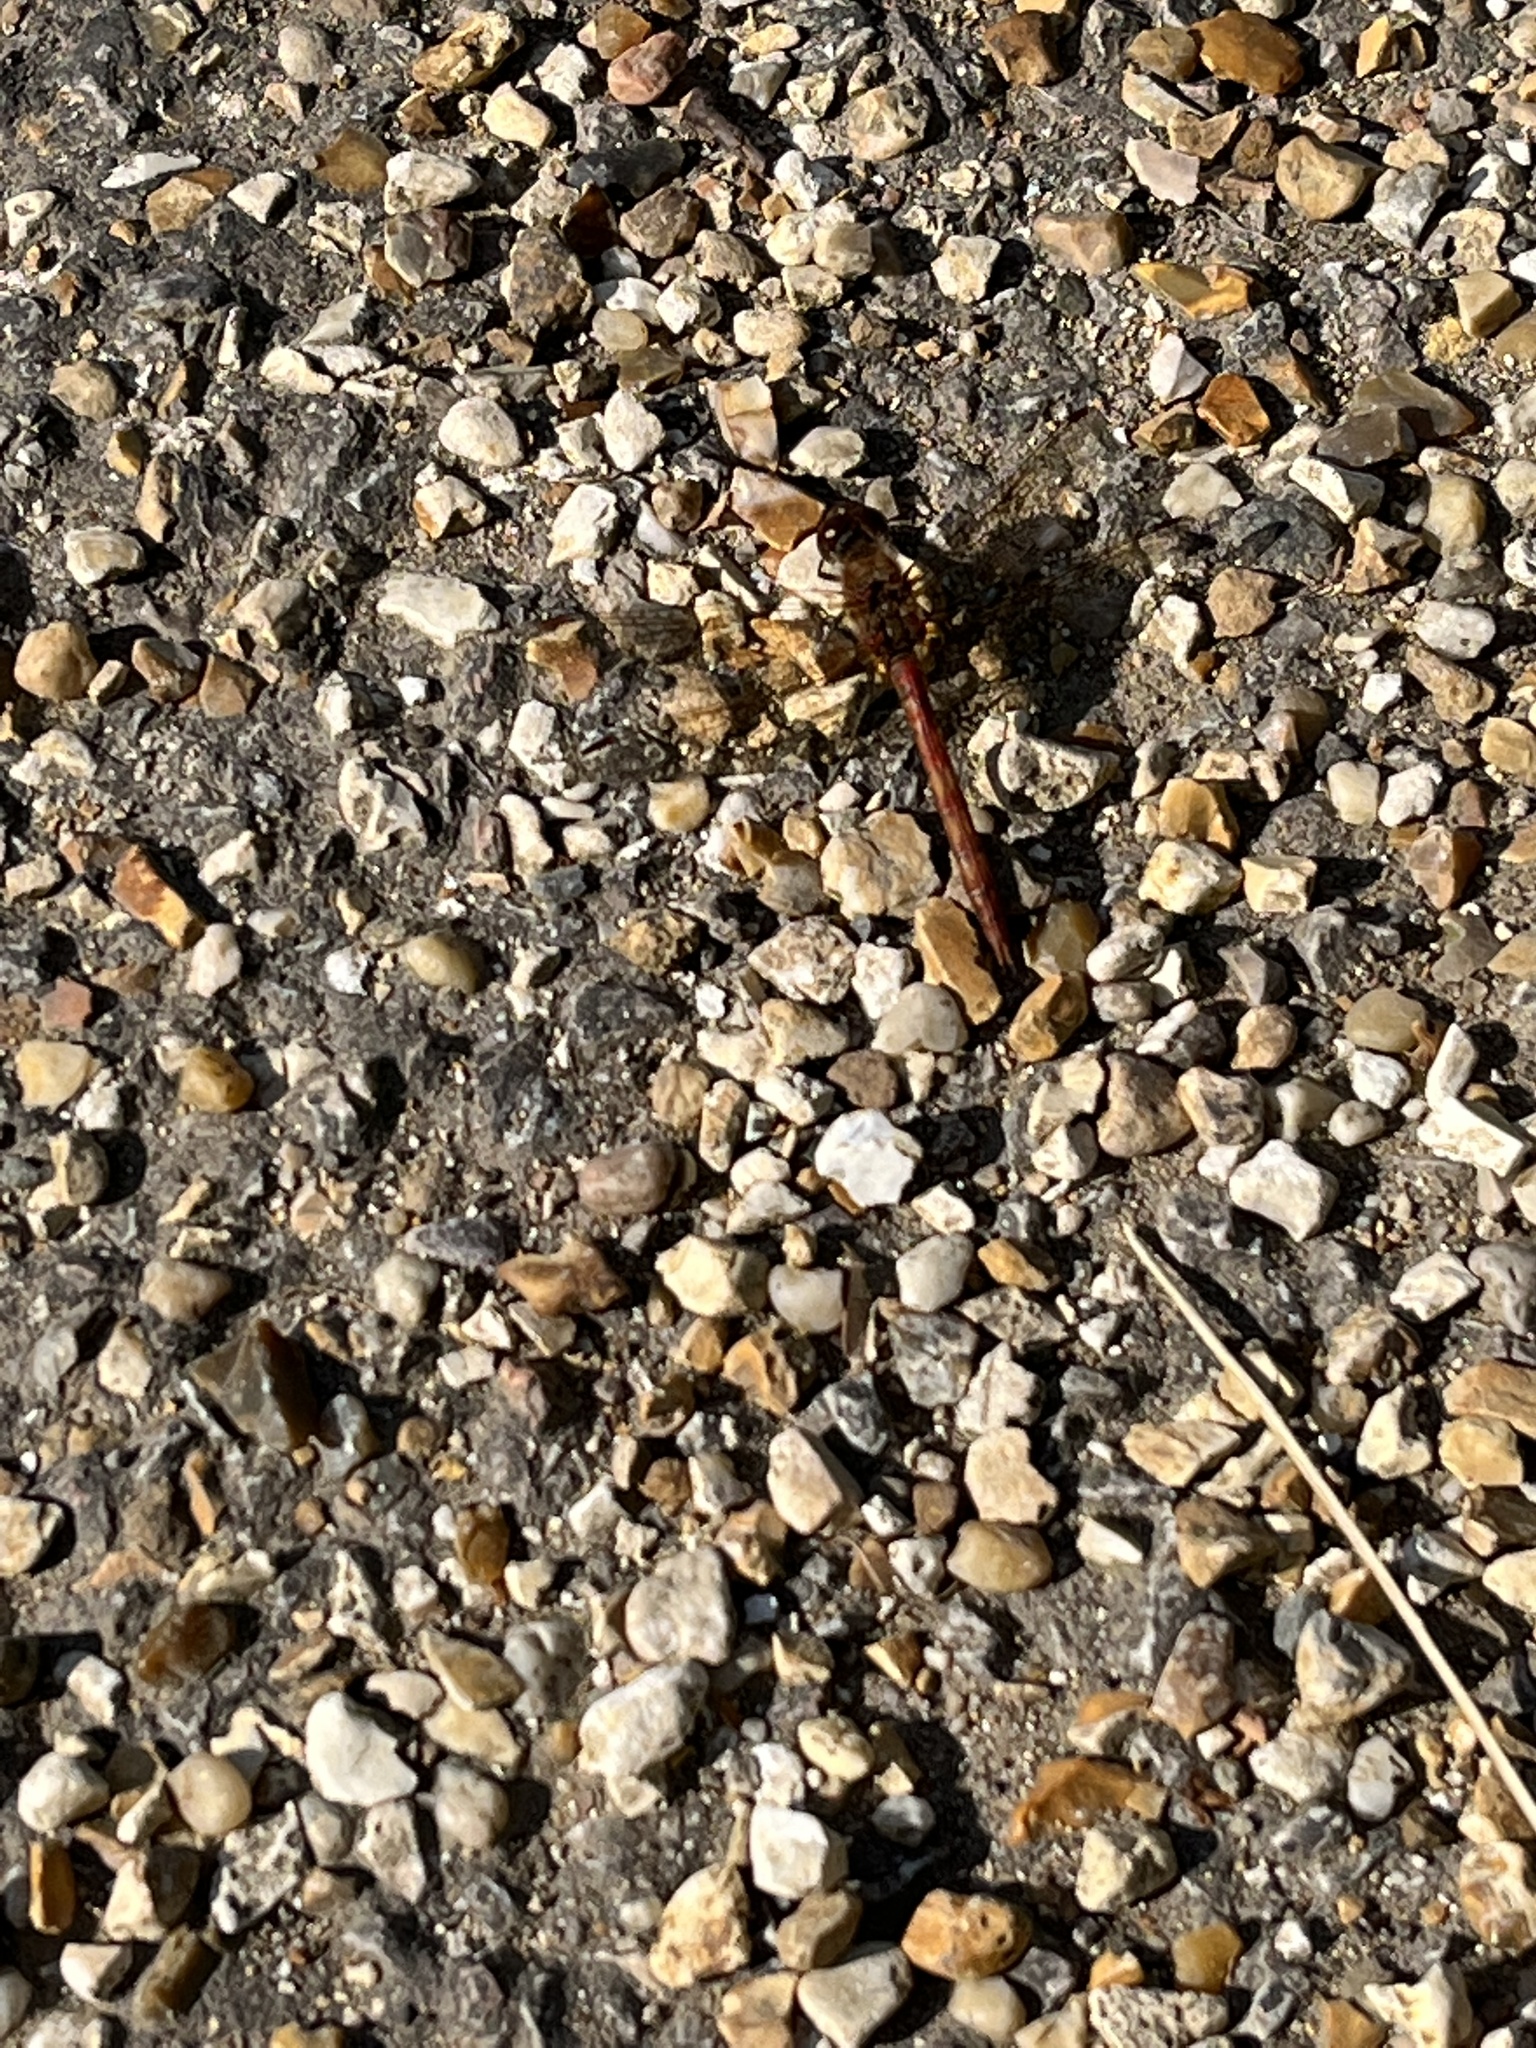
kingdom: Animalia
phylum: Arthropoda
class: Insecta
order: Odonata
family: Libellulidae
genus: Sympetrum
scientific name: Sympetrum striolatum
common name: Common darter
